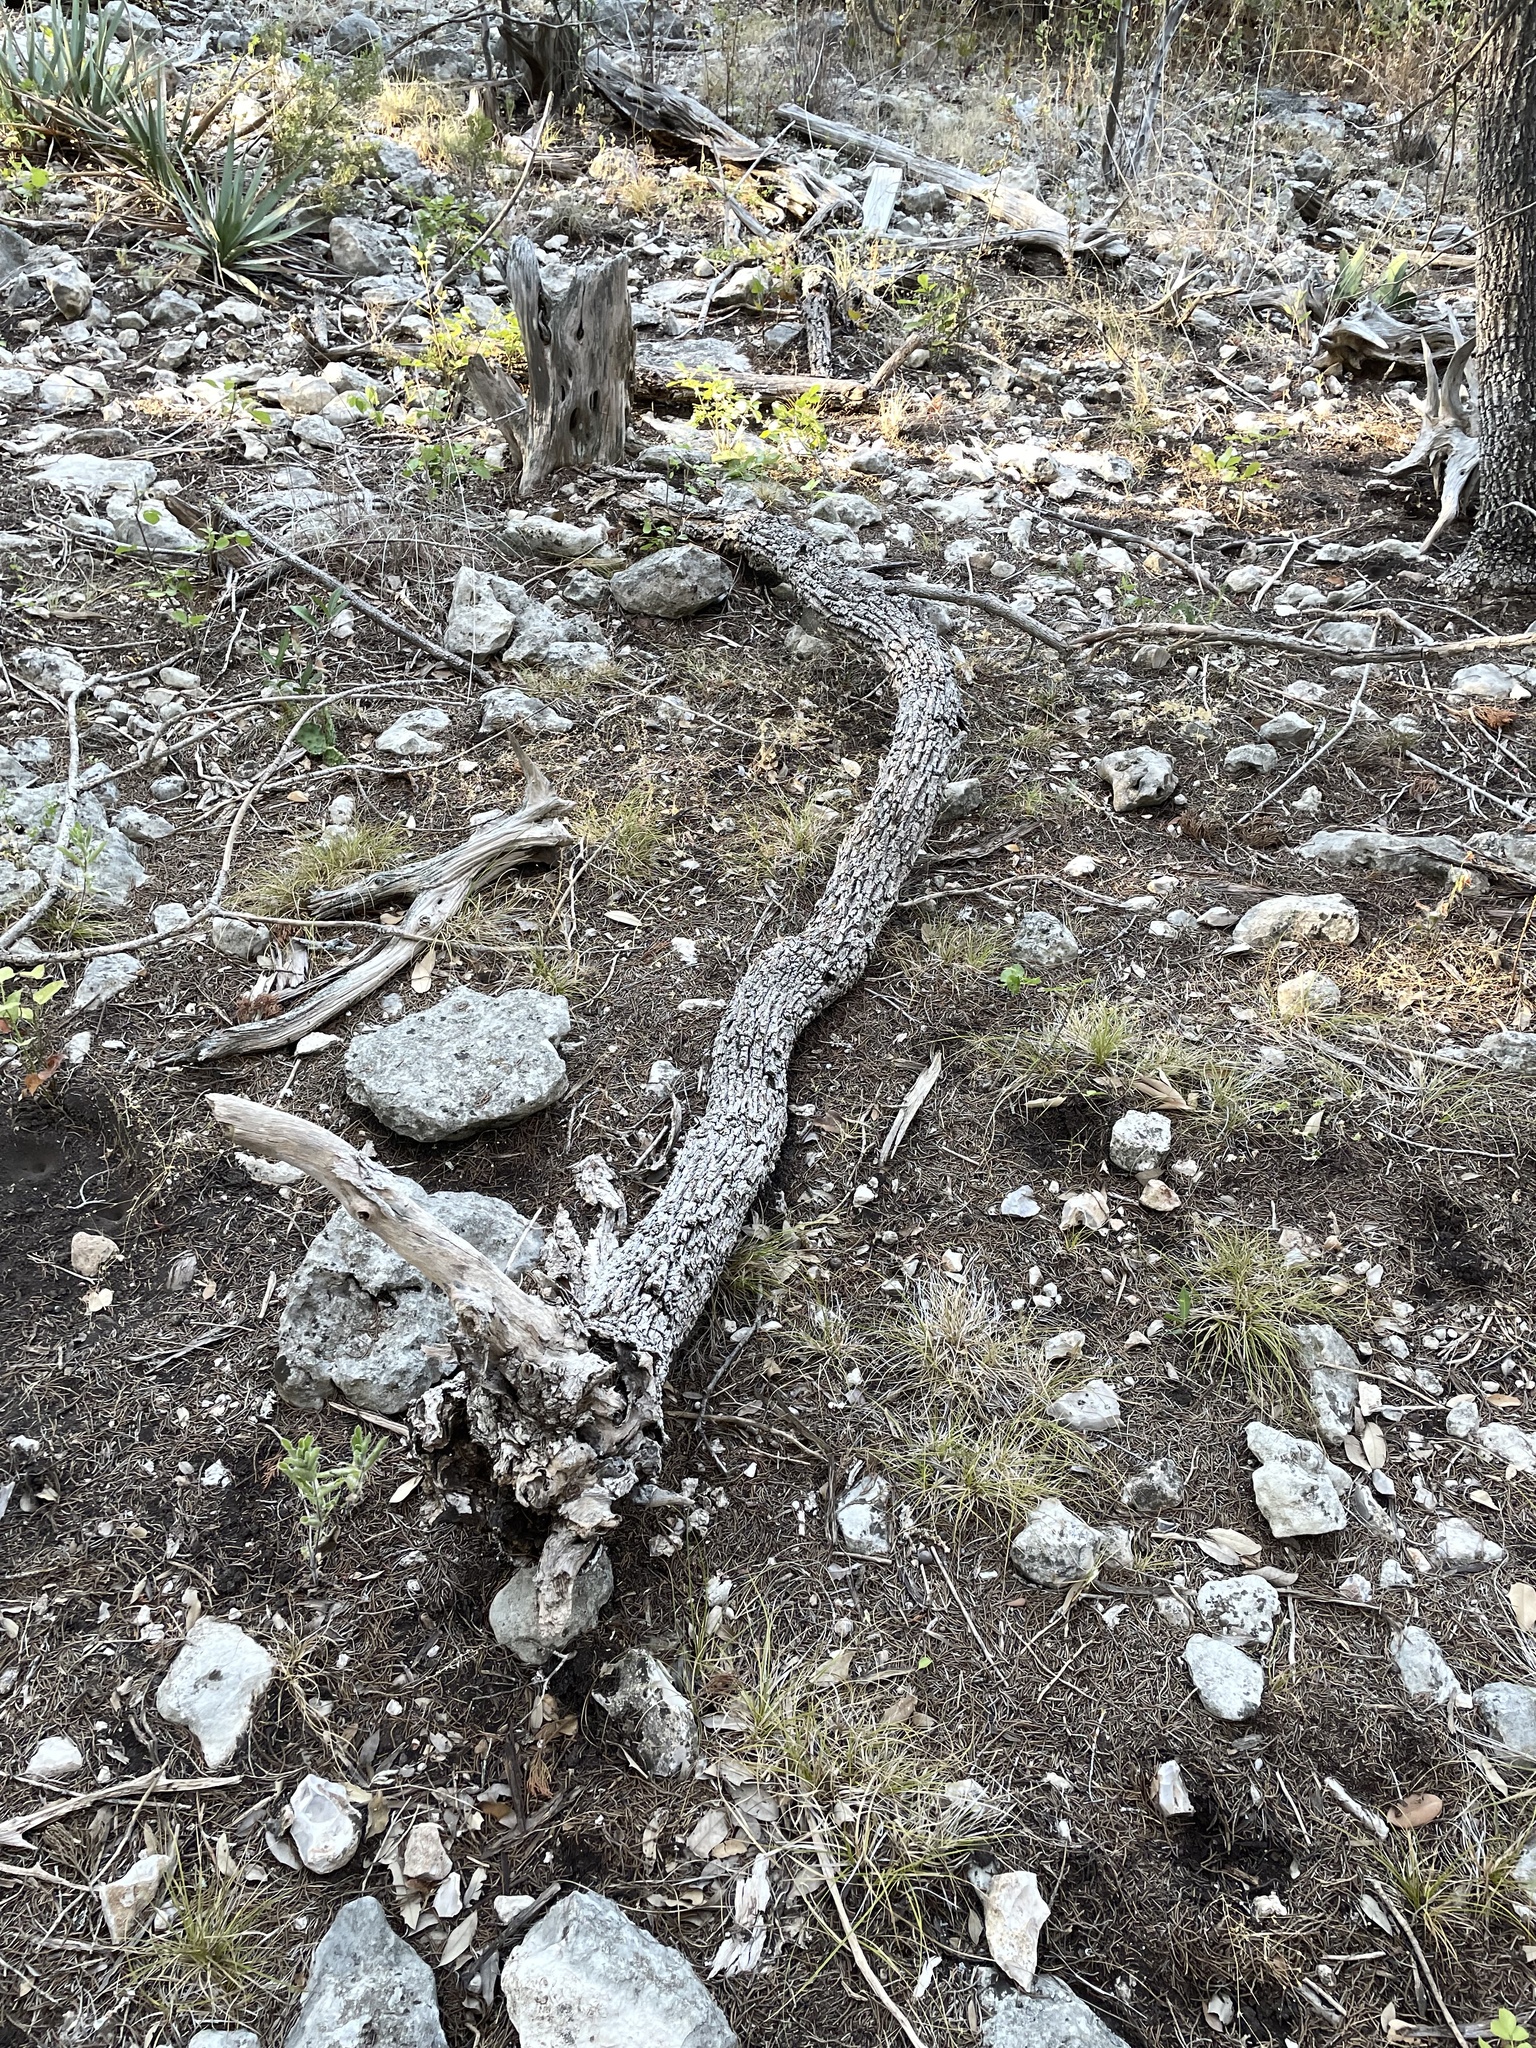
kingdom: Plantae
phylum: Tracheophyta
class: Magnoliopsida
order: Lamiales
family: Oleaceae
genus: Fraxinus
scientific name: Fraxinus albicans
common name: Texas ash
